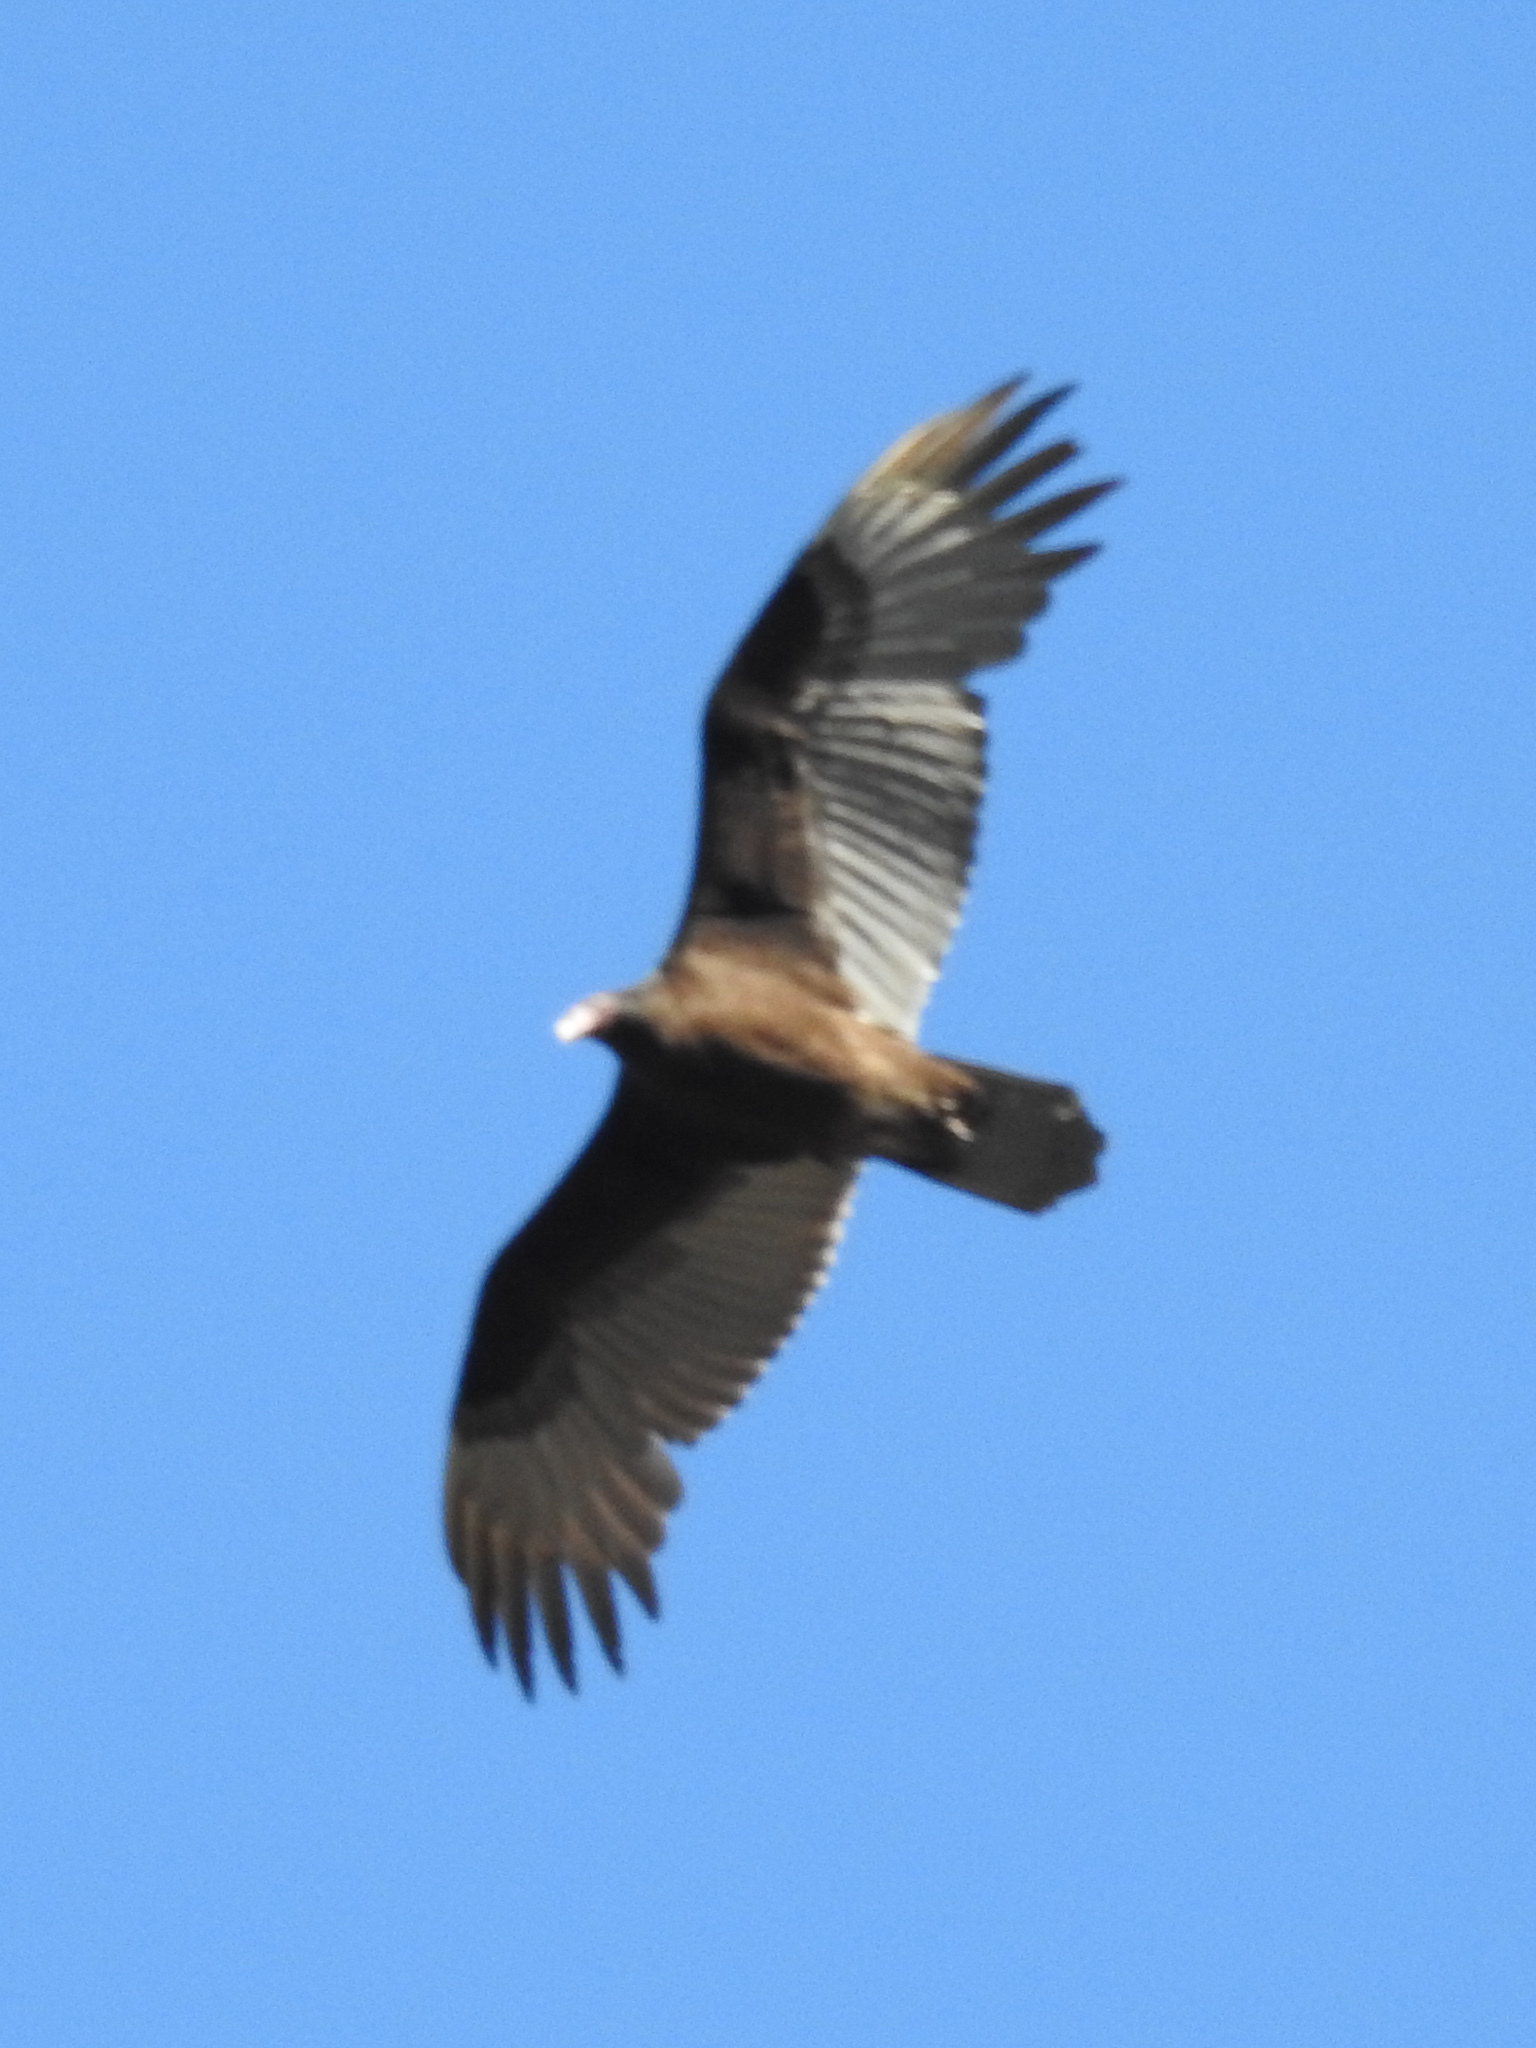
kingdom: Animalia
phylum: Chordata
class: Aves
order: Accipitriformes
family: Cathartidae
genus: Cathartes
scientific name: Cathartes aura
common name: Turkey vulture
